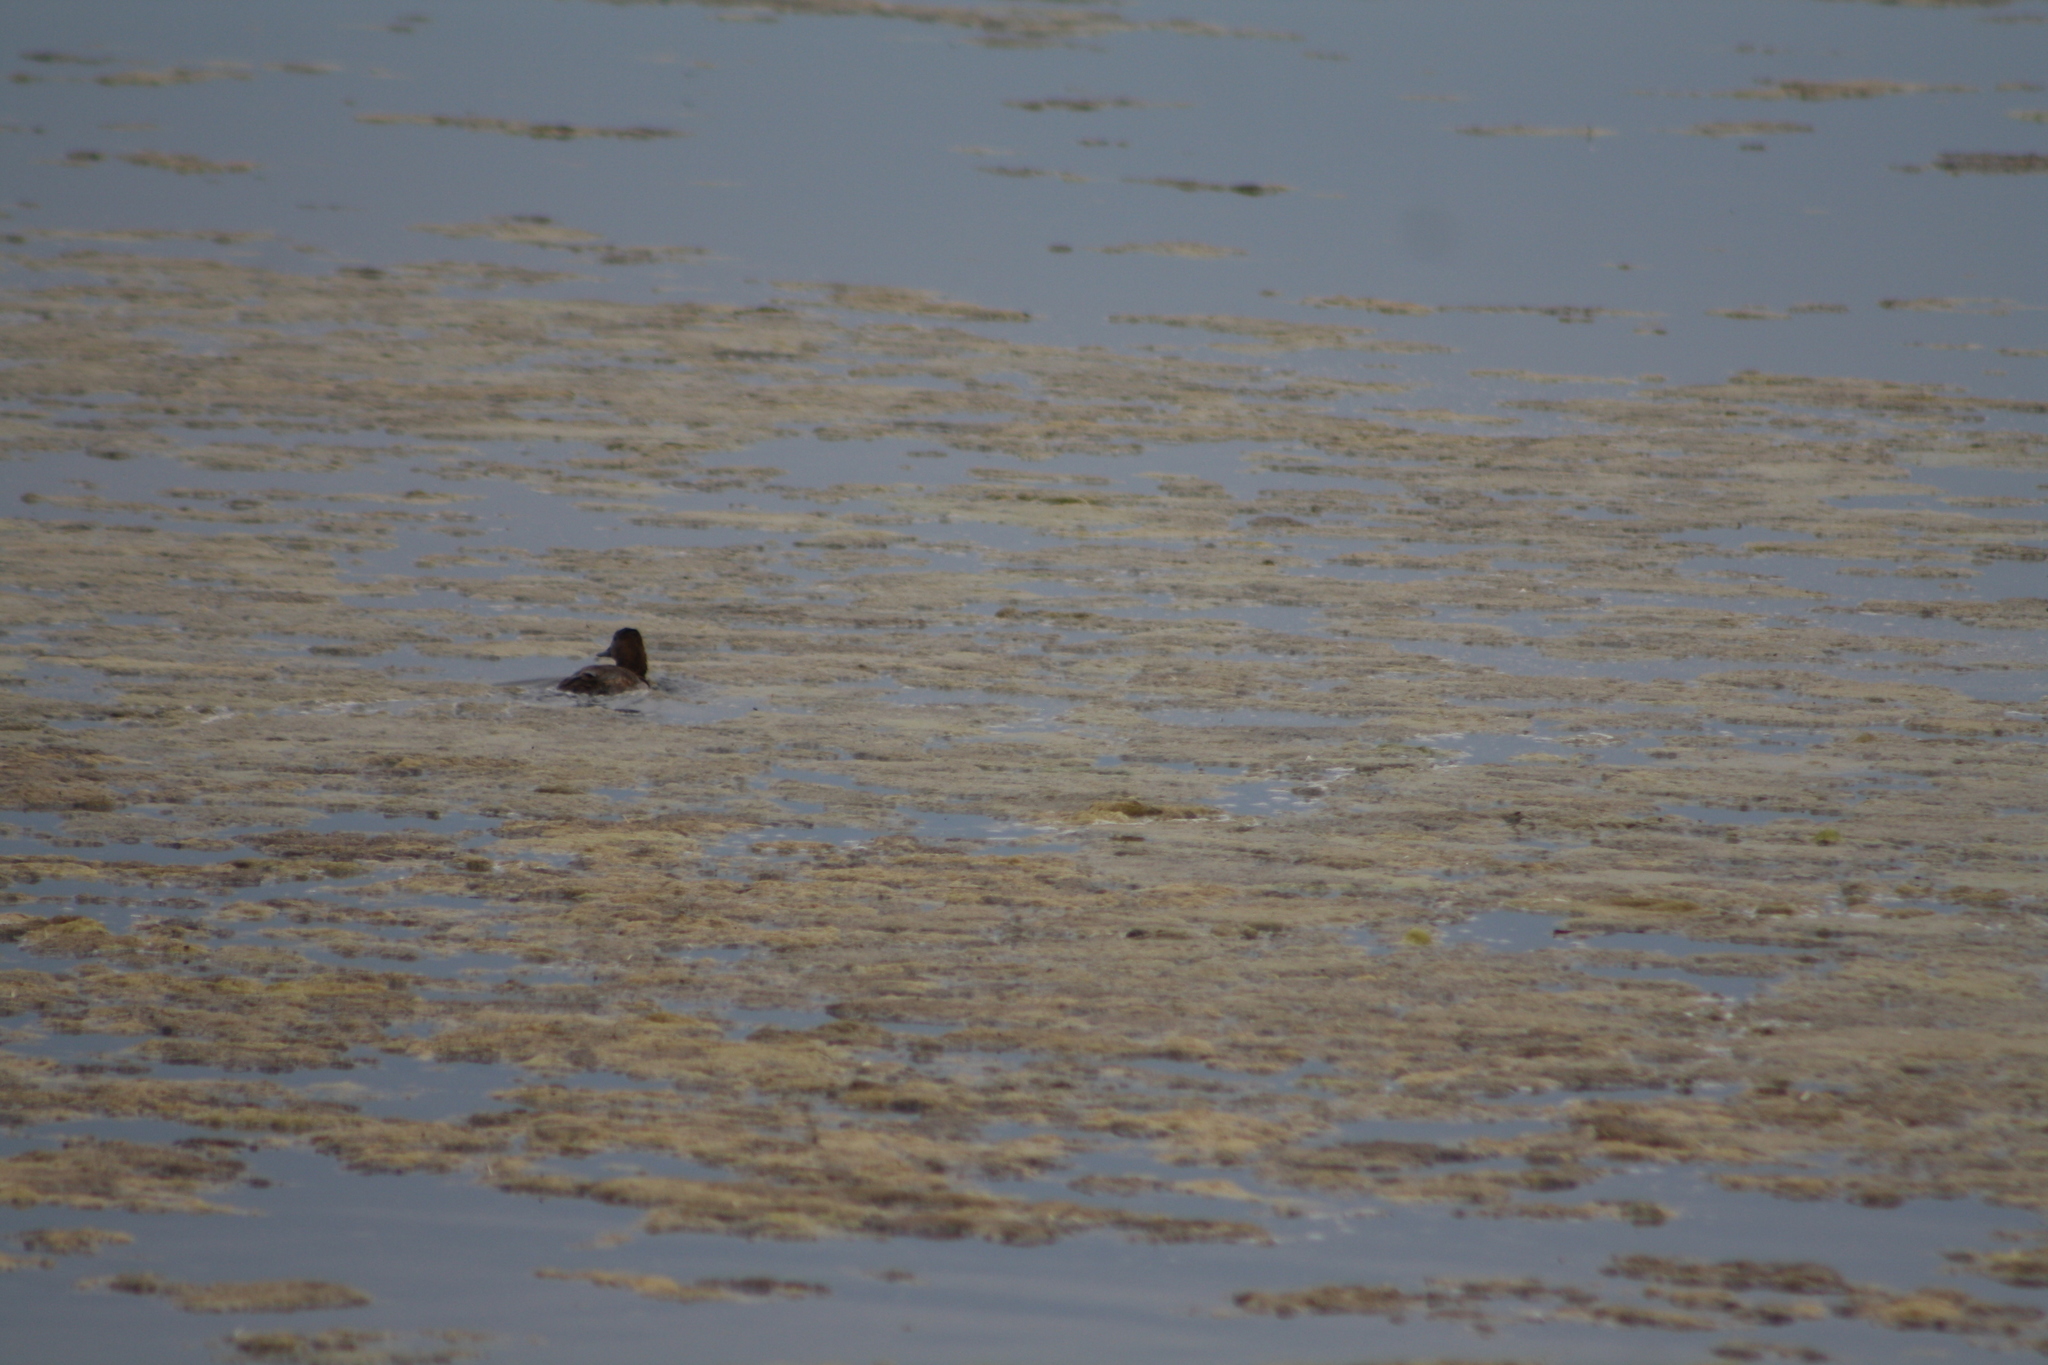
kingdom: Animalia
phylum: Chordata
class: Aves
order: Anseriformes
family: Anatidae
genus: Aythya
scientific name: Aythya ferina
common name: Common pochard
